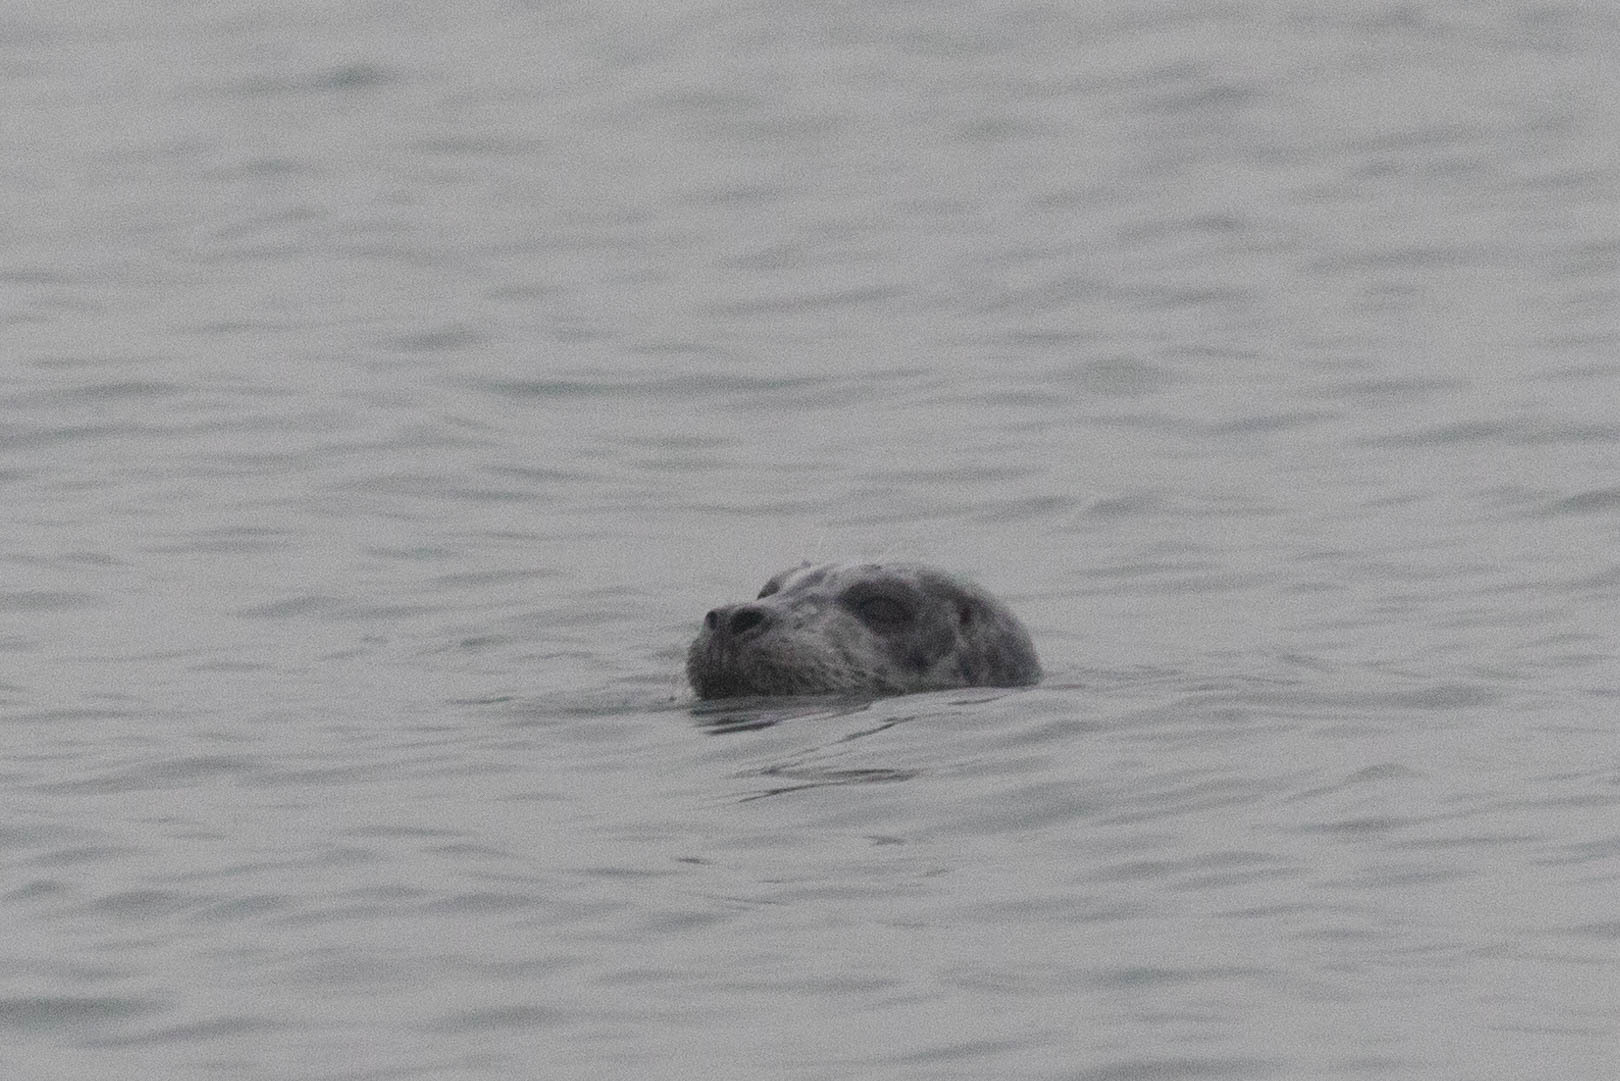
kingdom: Animalia
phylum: Chordata
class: Mammalia
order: Carnivora
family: Phocidae
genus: Phoca
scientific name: Phoca vitulina
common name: Harbor seal
